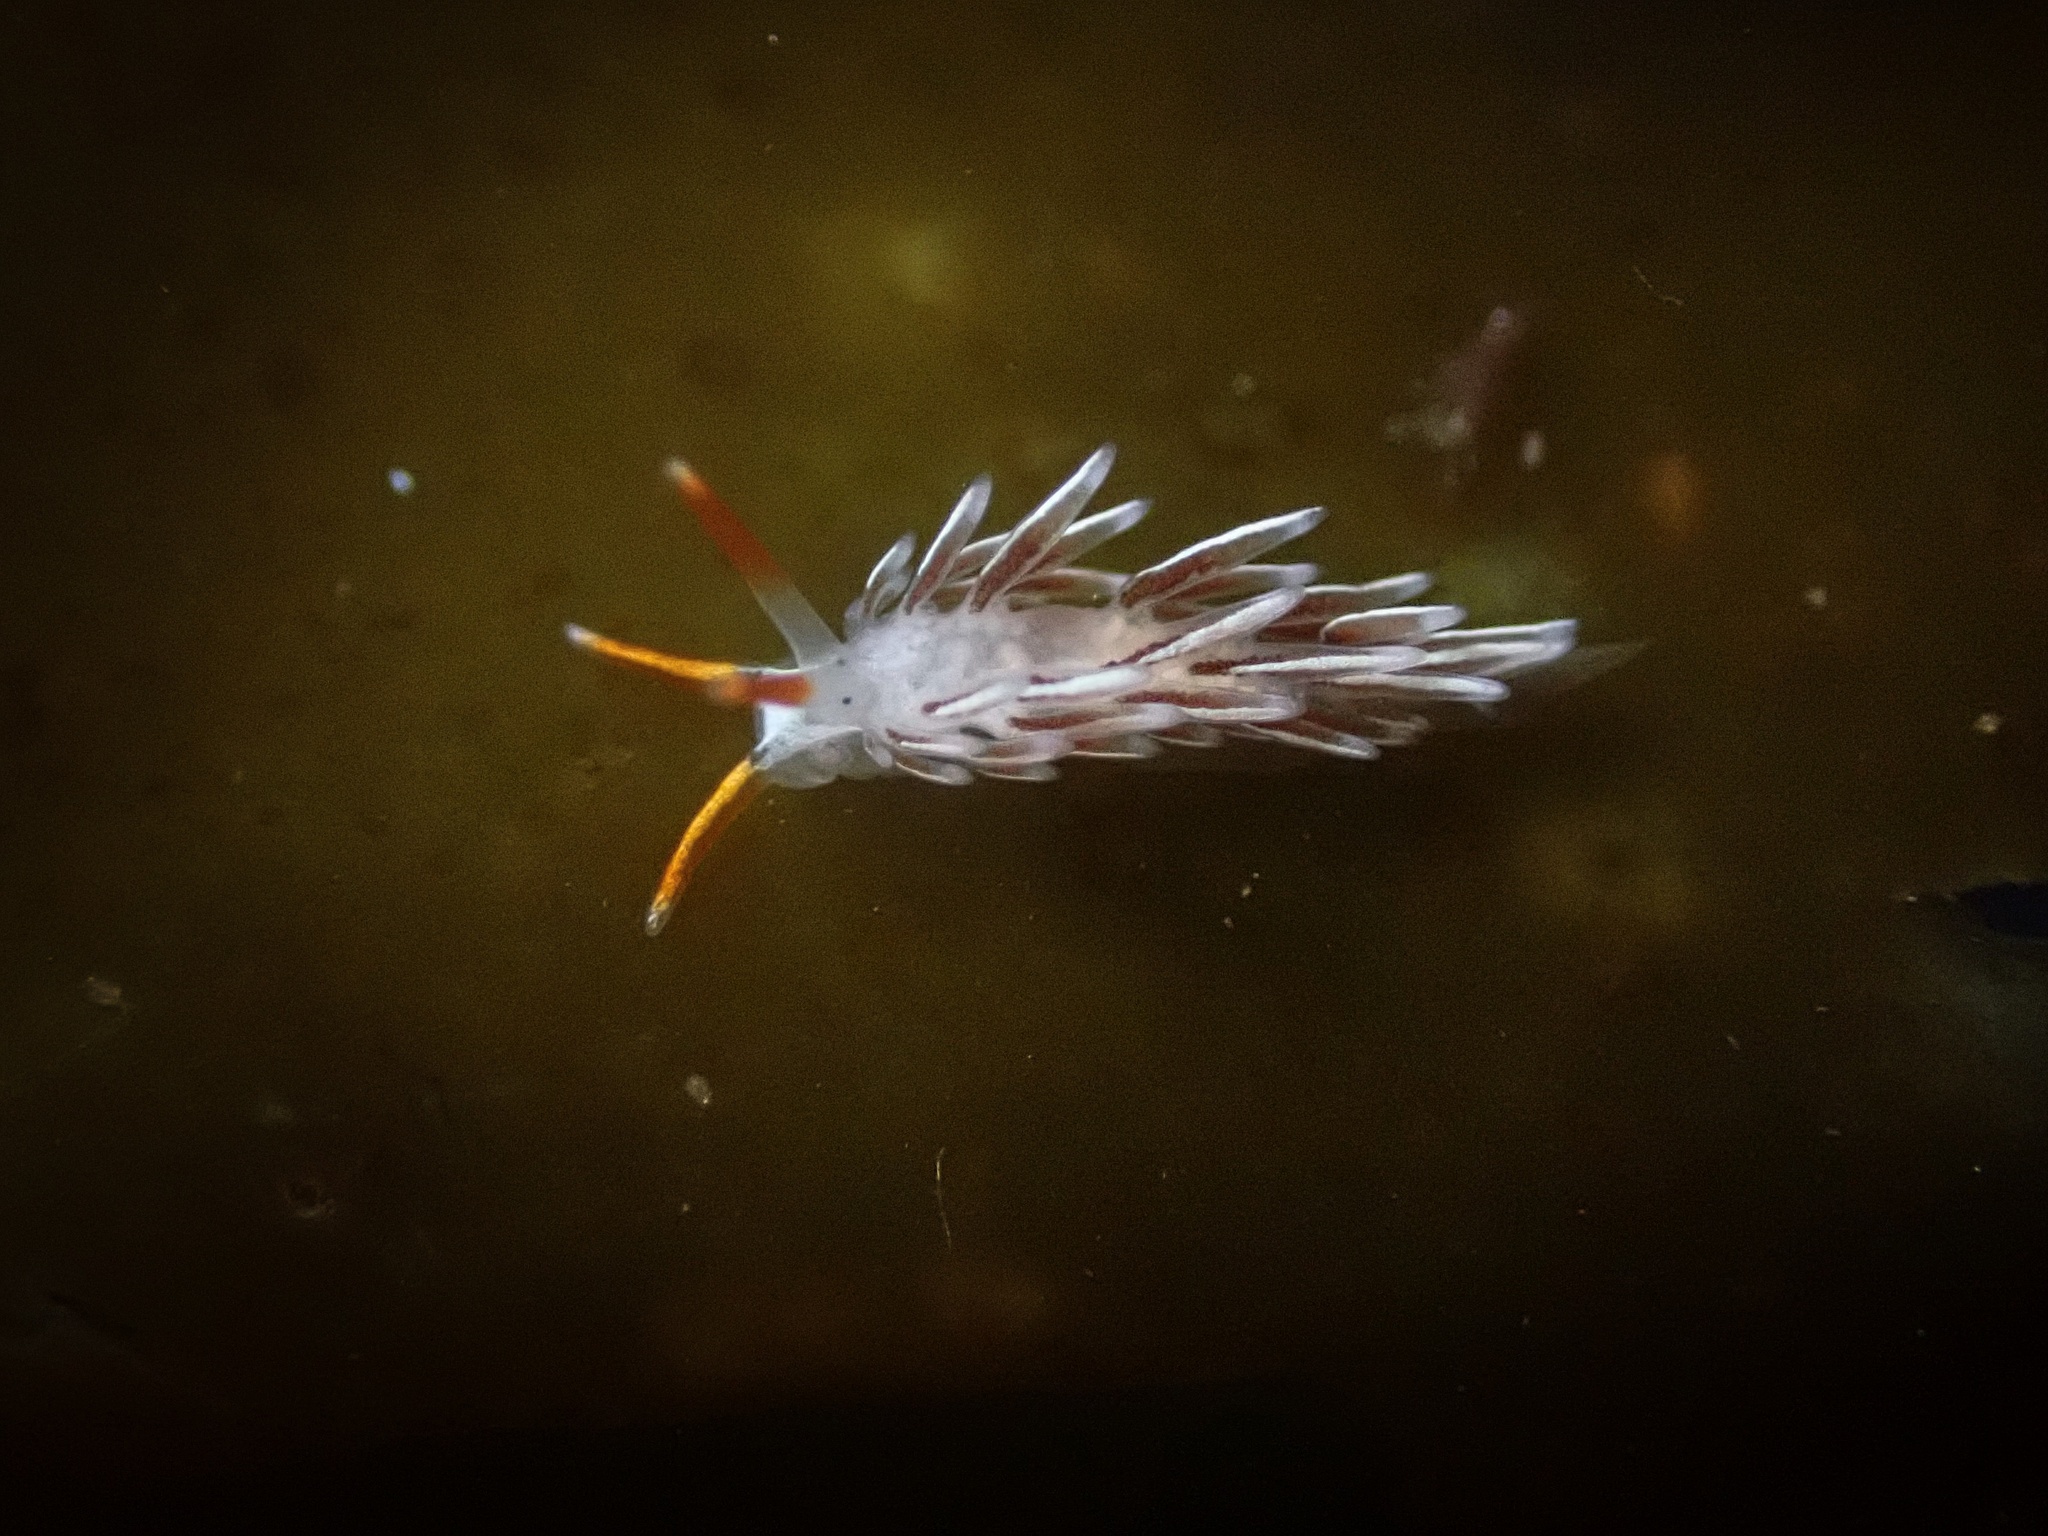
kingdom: Animalia
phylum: Mollusca
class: Gastropoda
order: Nudibranchia
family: Trinchesiidae
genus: Catriona
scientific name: Catriona spadix
